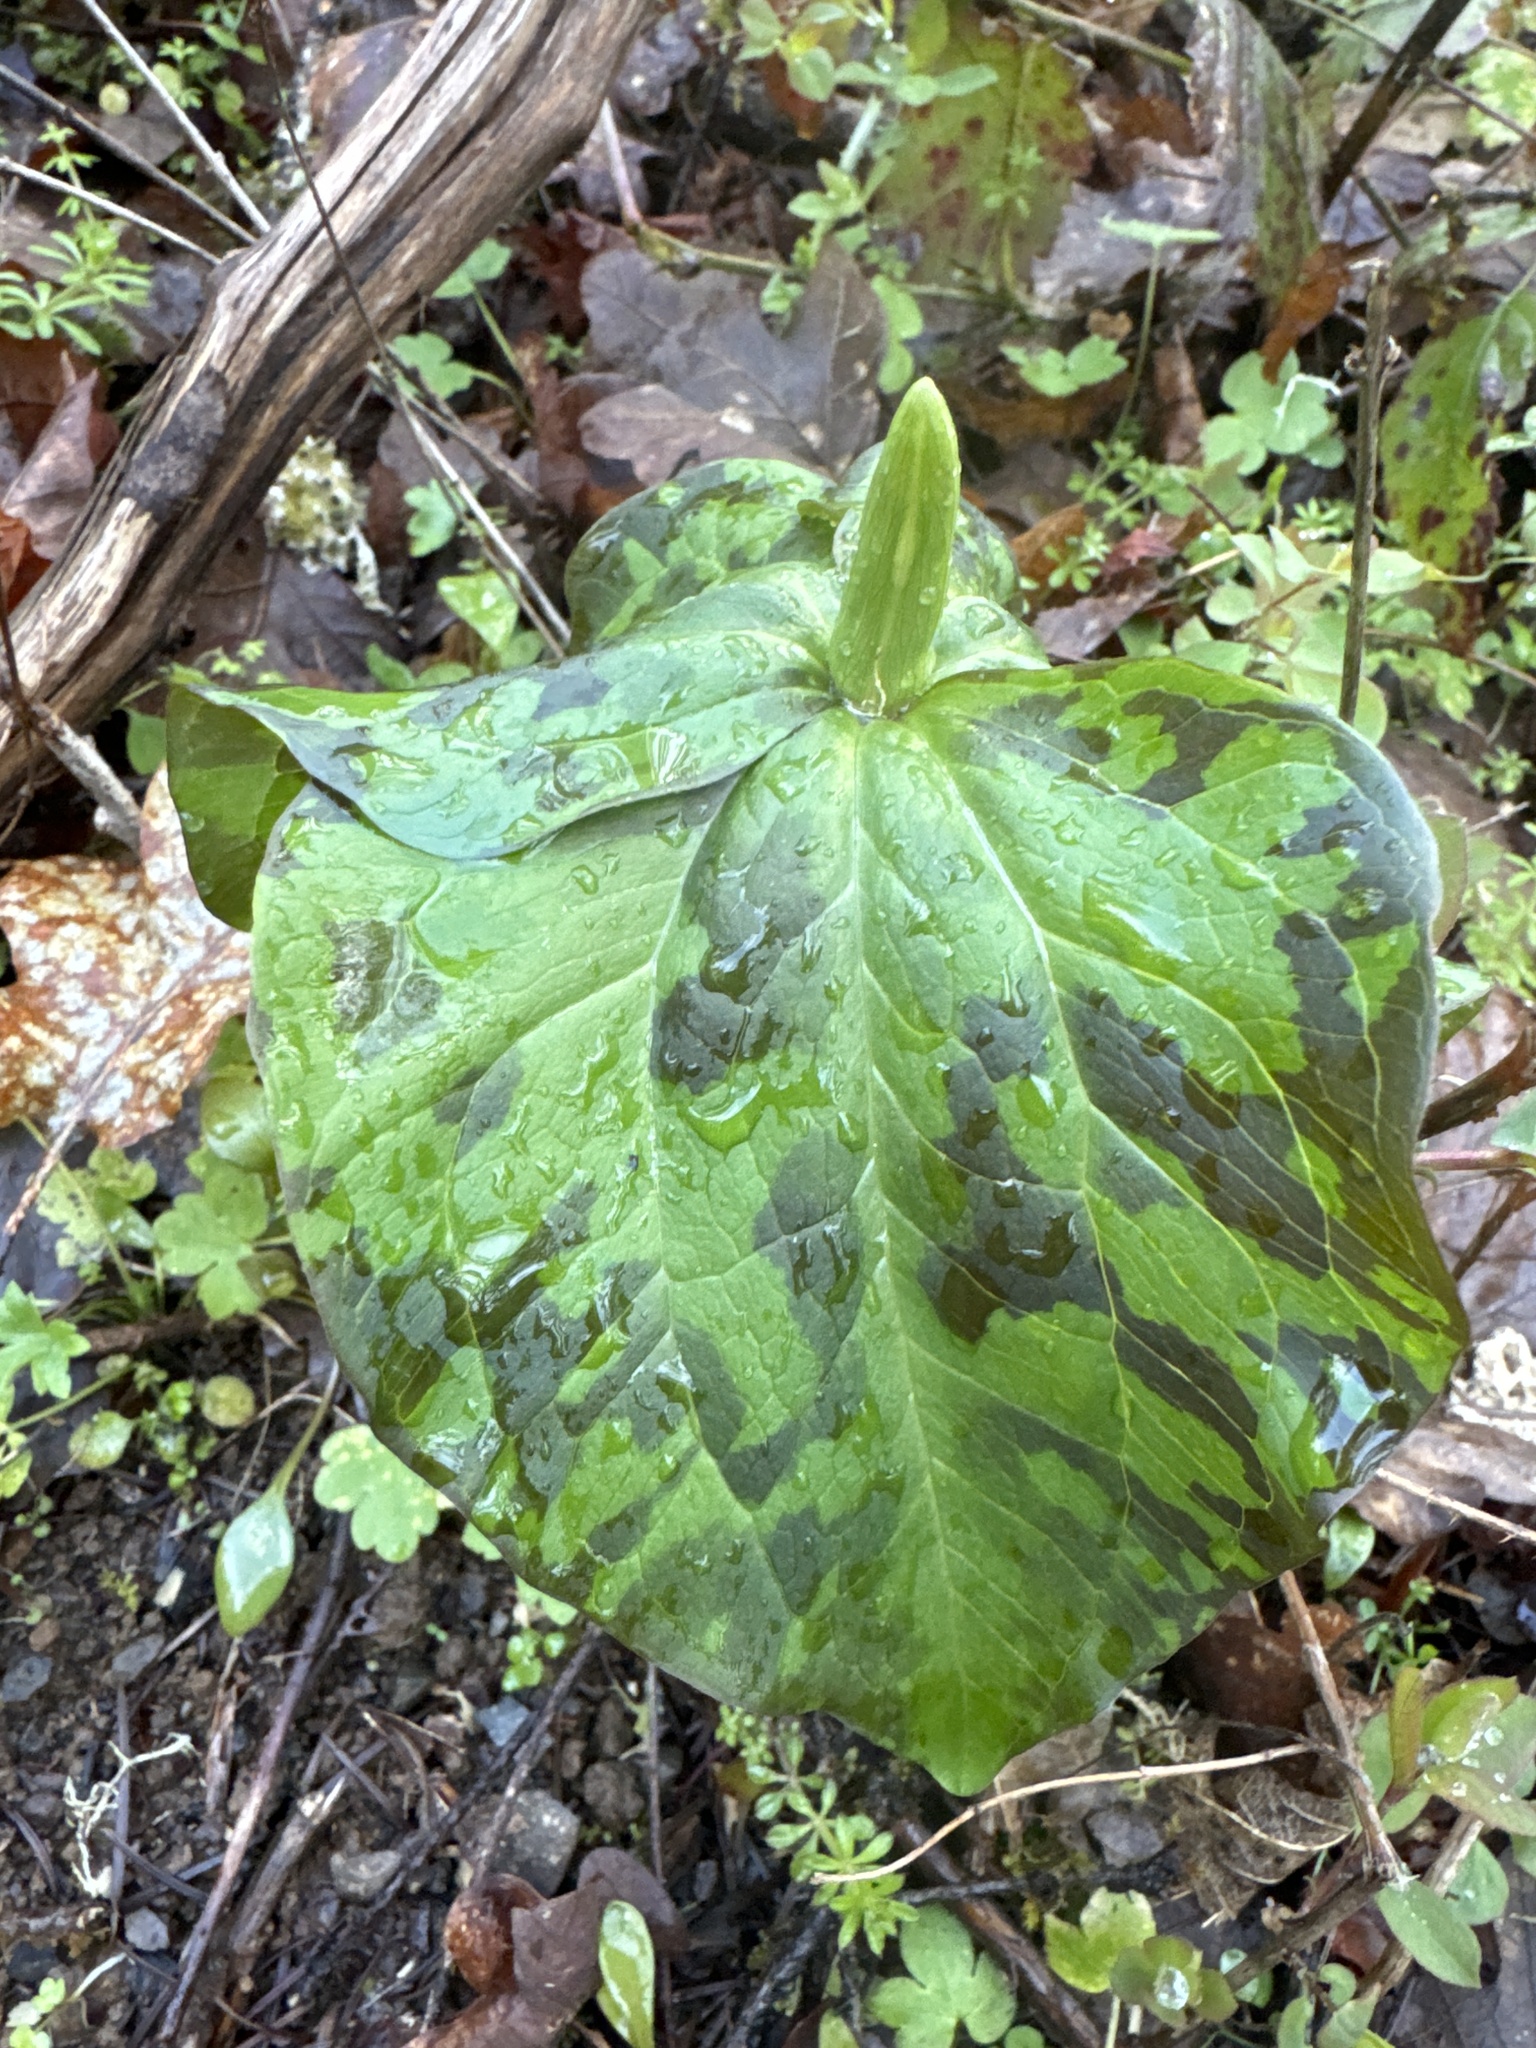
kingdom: Plantae
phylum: Tracheophyta
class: Liliopsida
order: Liliales
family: Melanthiaceae
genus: Trillium
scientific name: Trillium albidum
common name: Freeman's trillium
